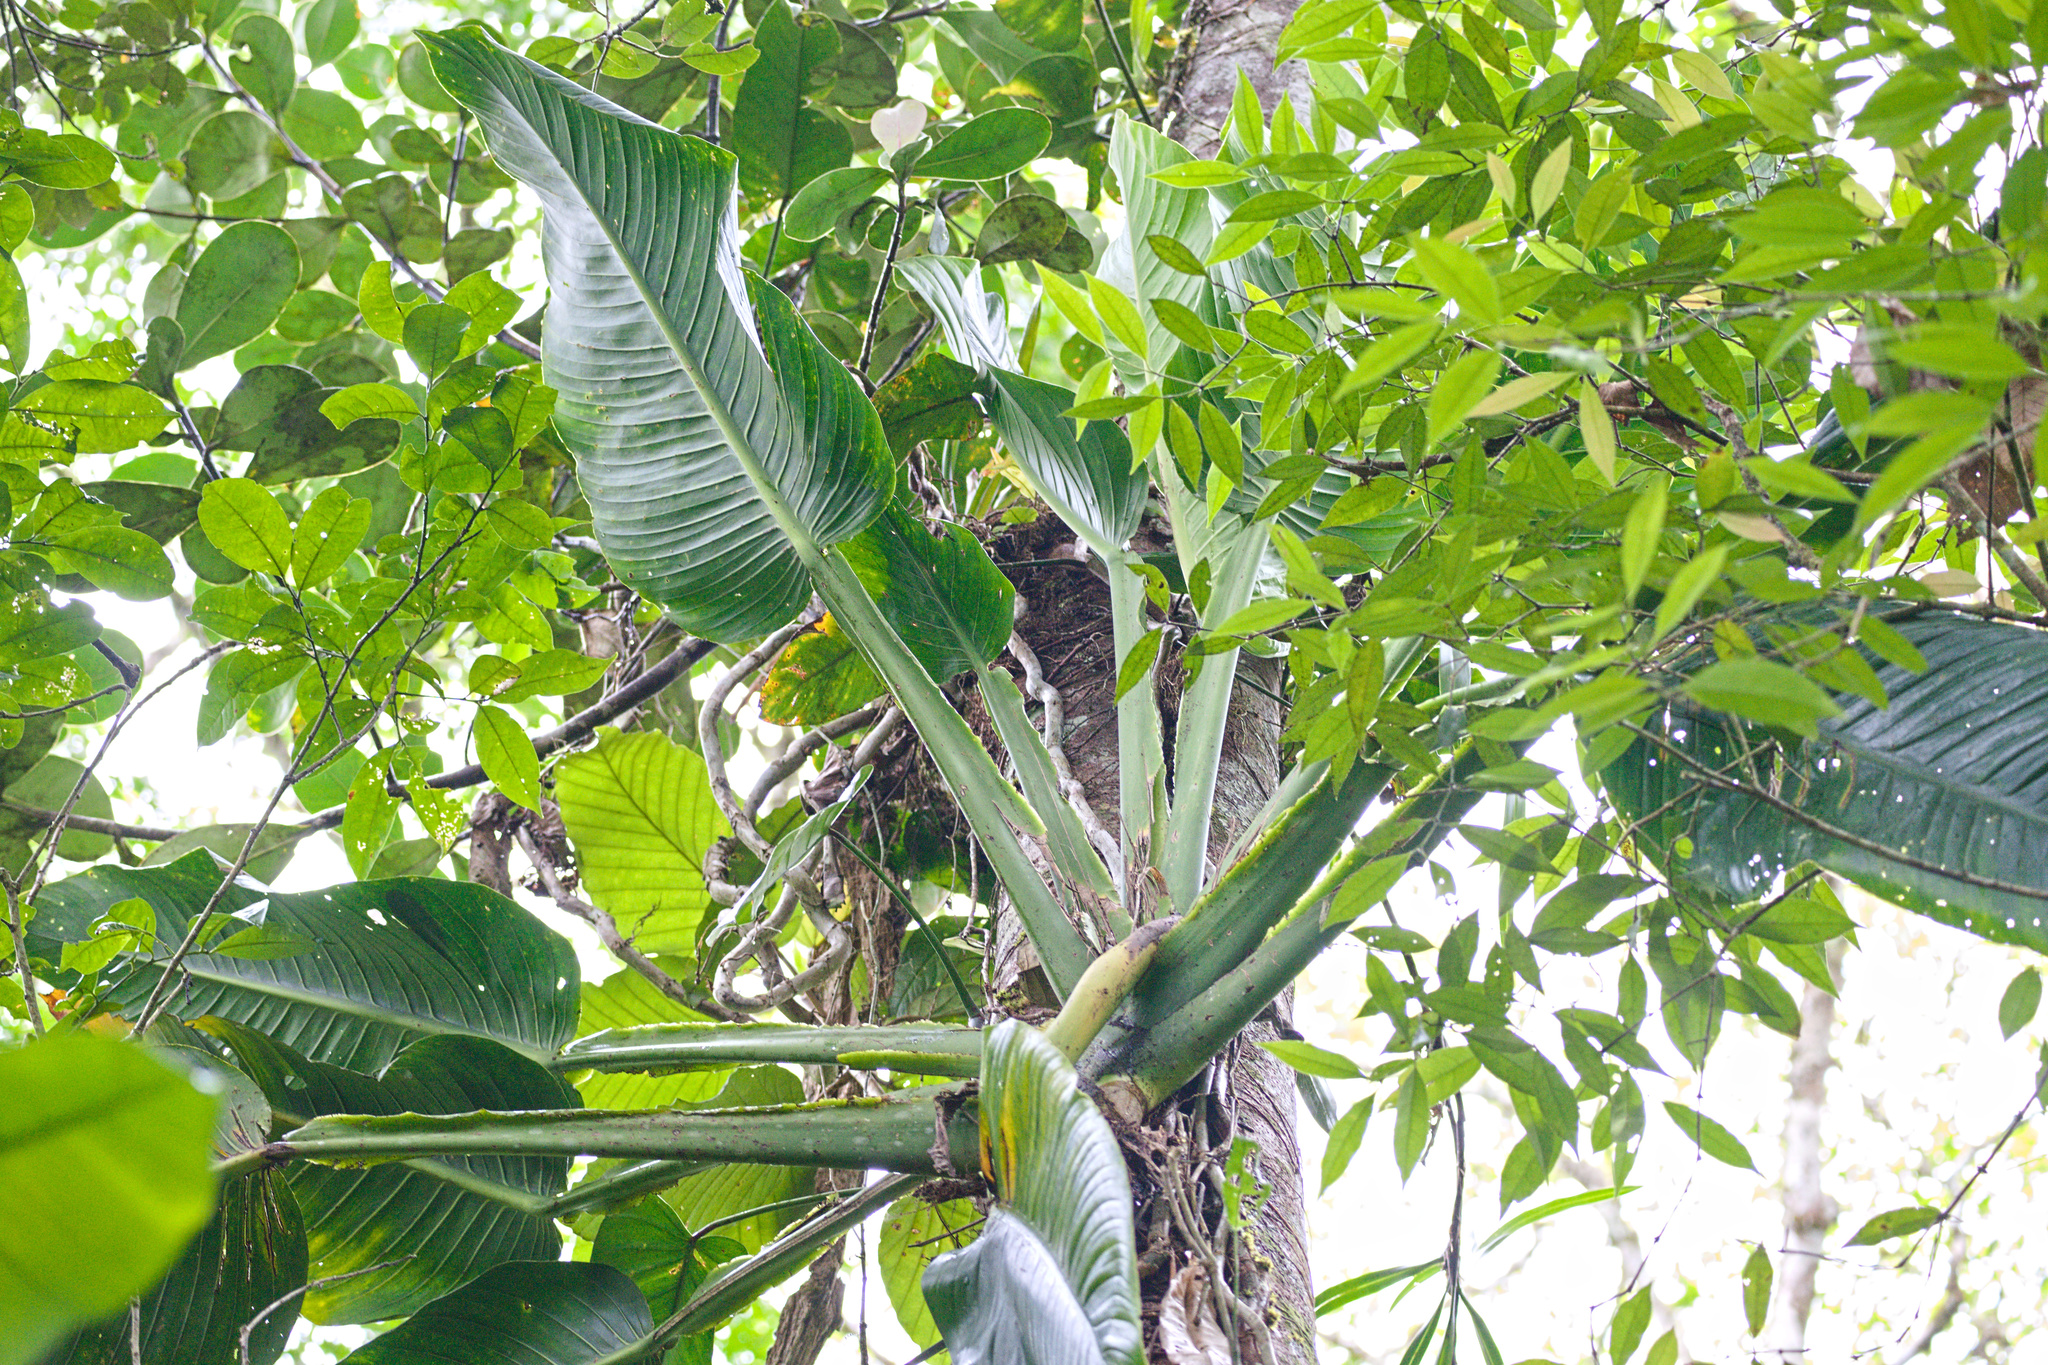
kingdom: Plantae
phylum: Tracheophyta
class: Liliopsida
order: Alismatales
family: Araceae
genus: Monstera
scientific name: Monstera standleyana
